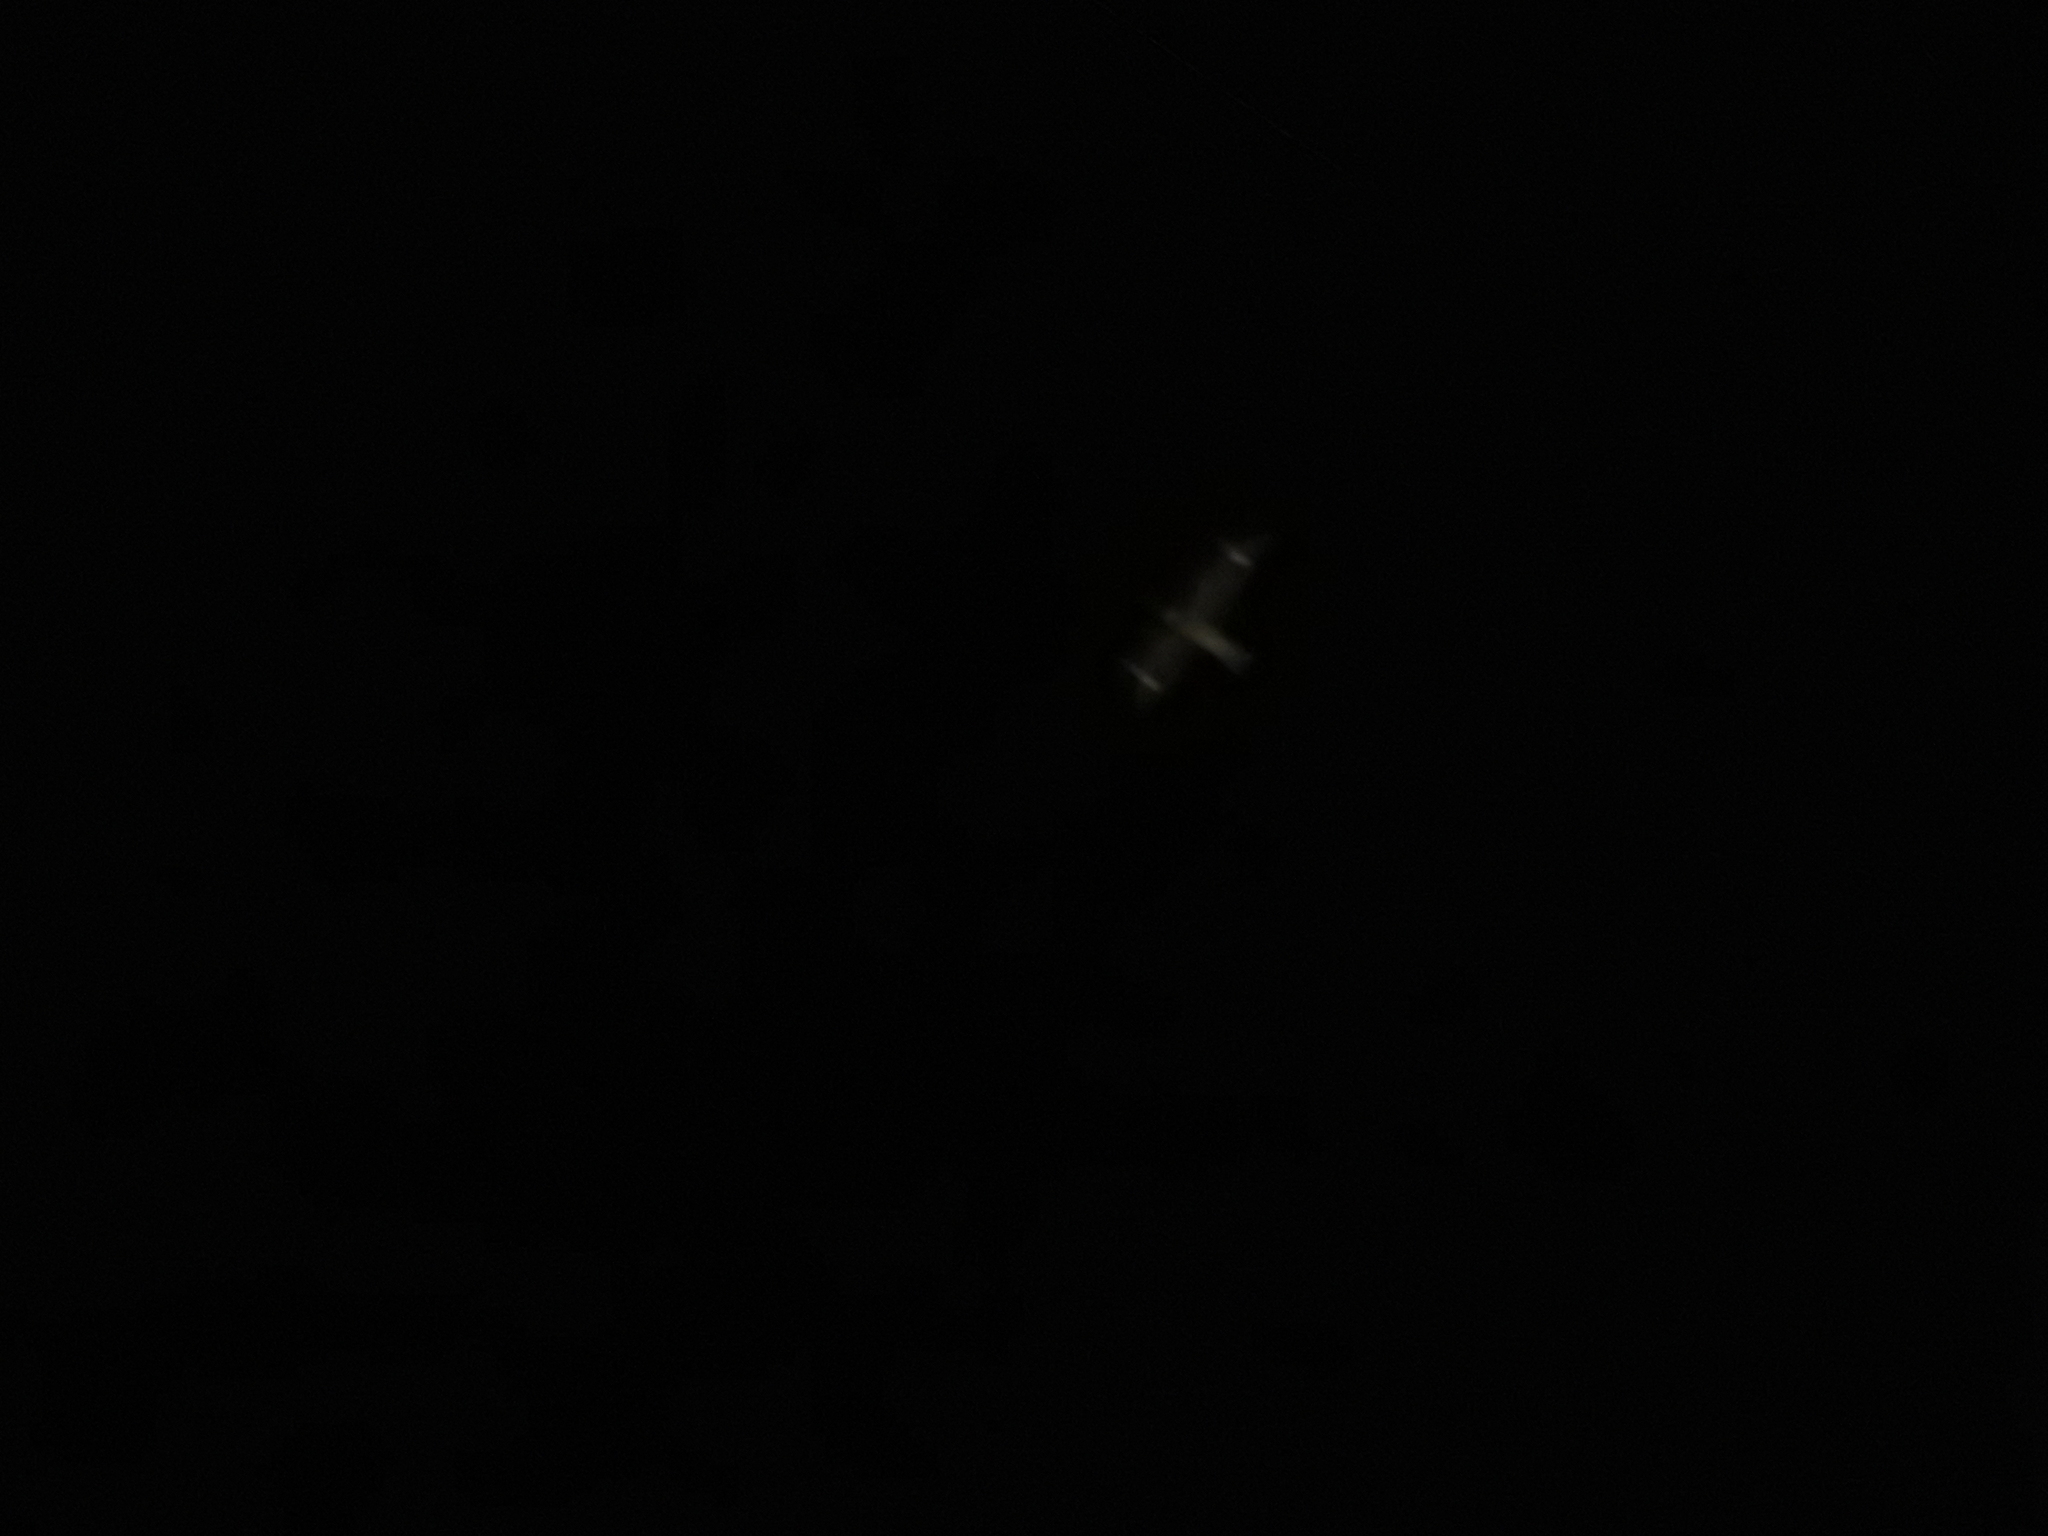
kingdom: Animalia
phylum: Chordata
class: Aves
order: Caprimulgiformes
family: Caprimulgidae
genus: Chordeiles
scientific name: Chordeiles minor
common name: Common nighthawk
